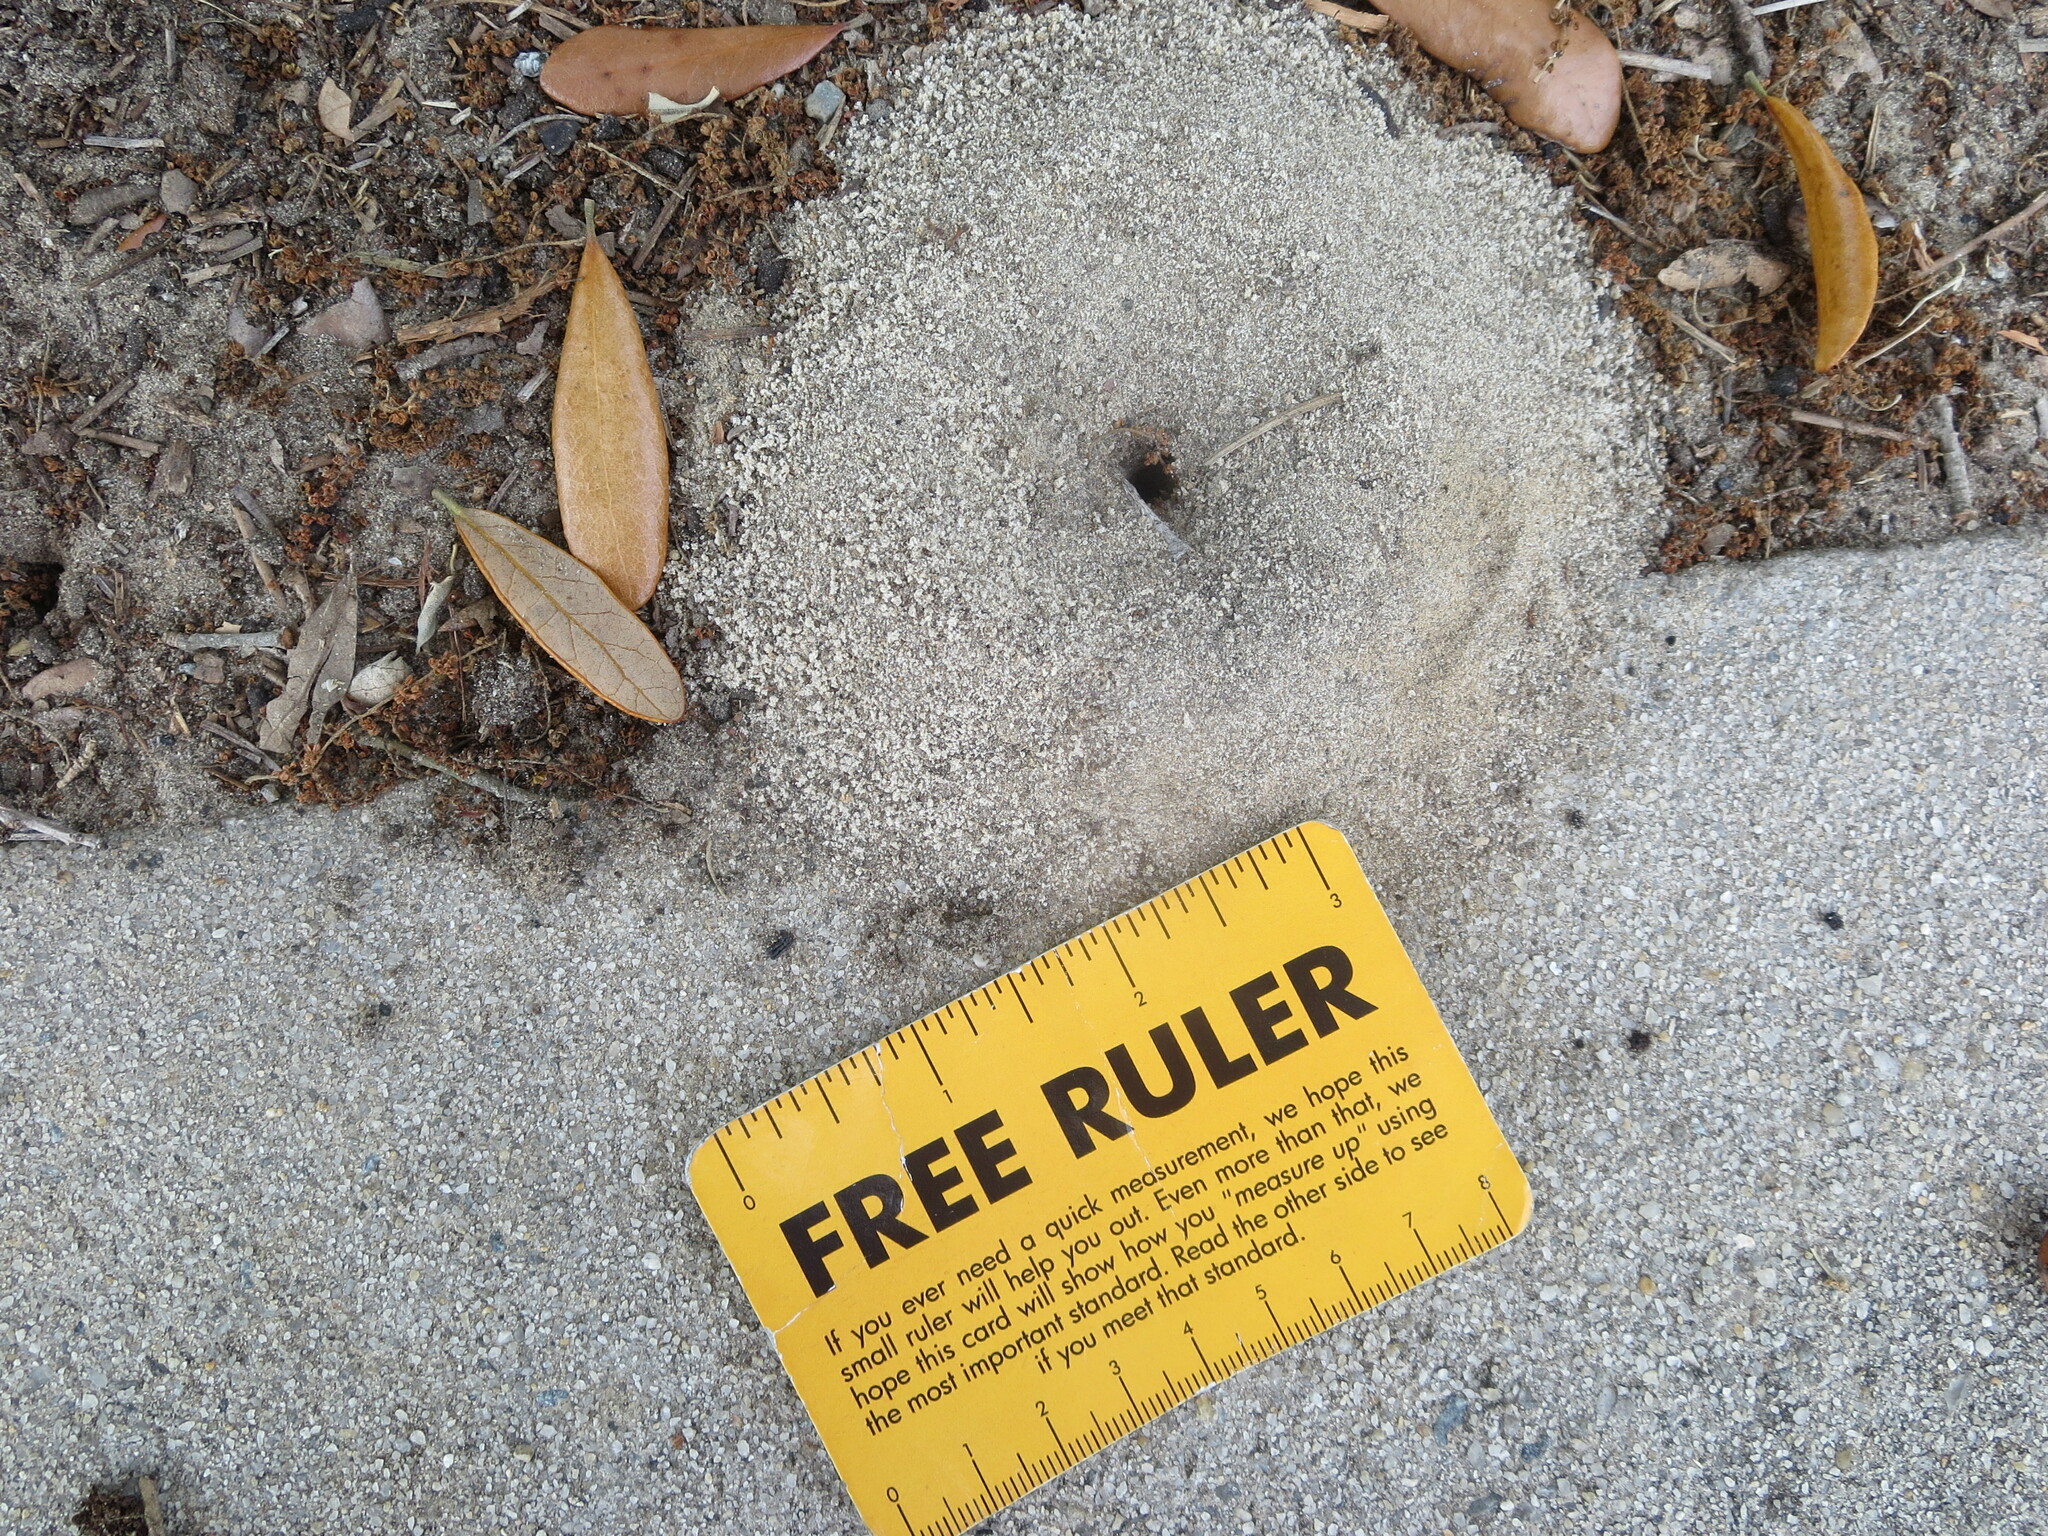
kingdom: Animalia
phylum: Arthropoda
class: Insecta
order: Hymenoptera
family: Formicidae
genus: Dorymyrmex
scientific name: Dorymyrmex bureni
